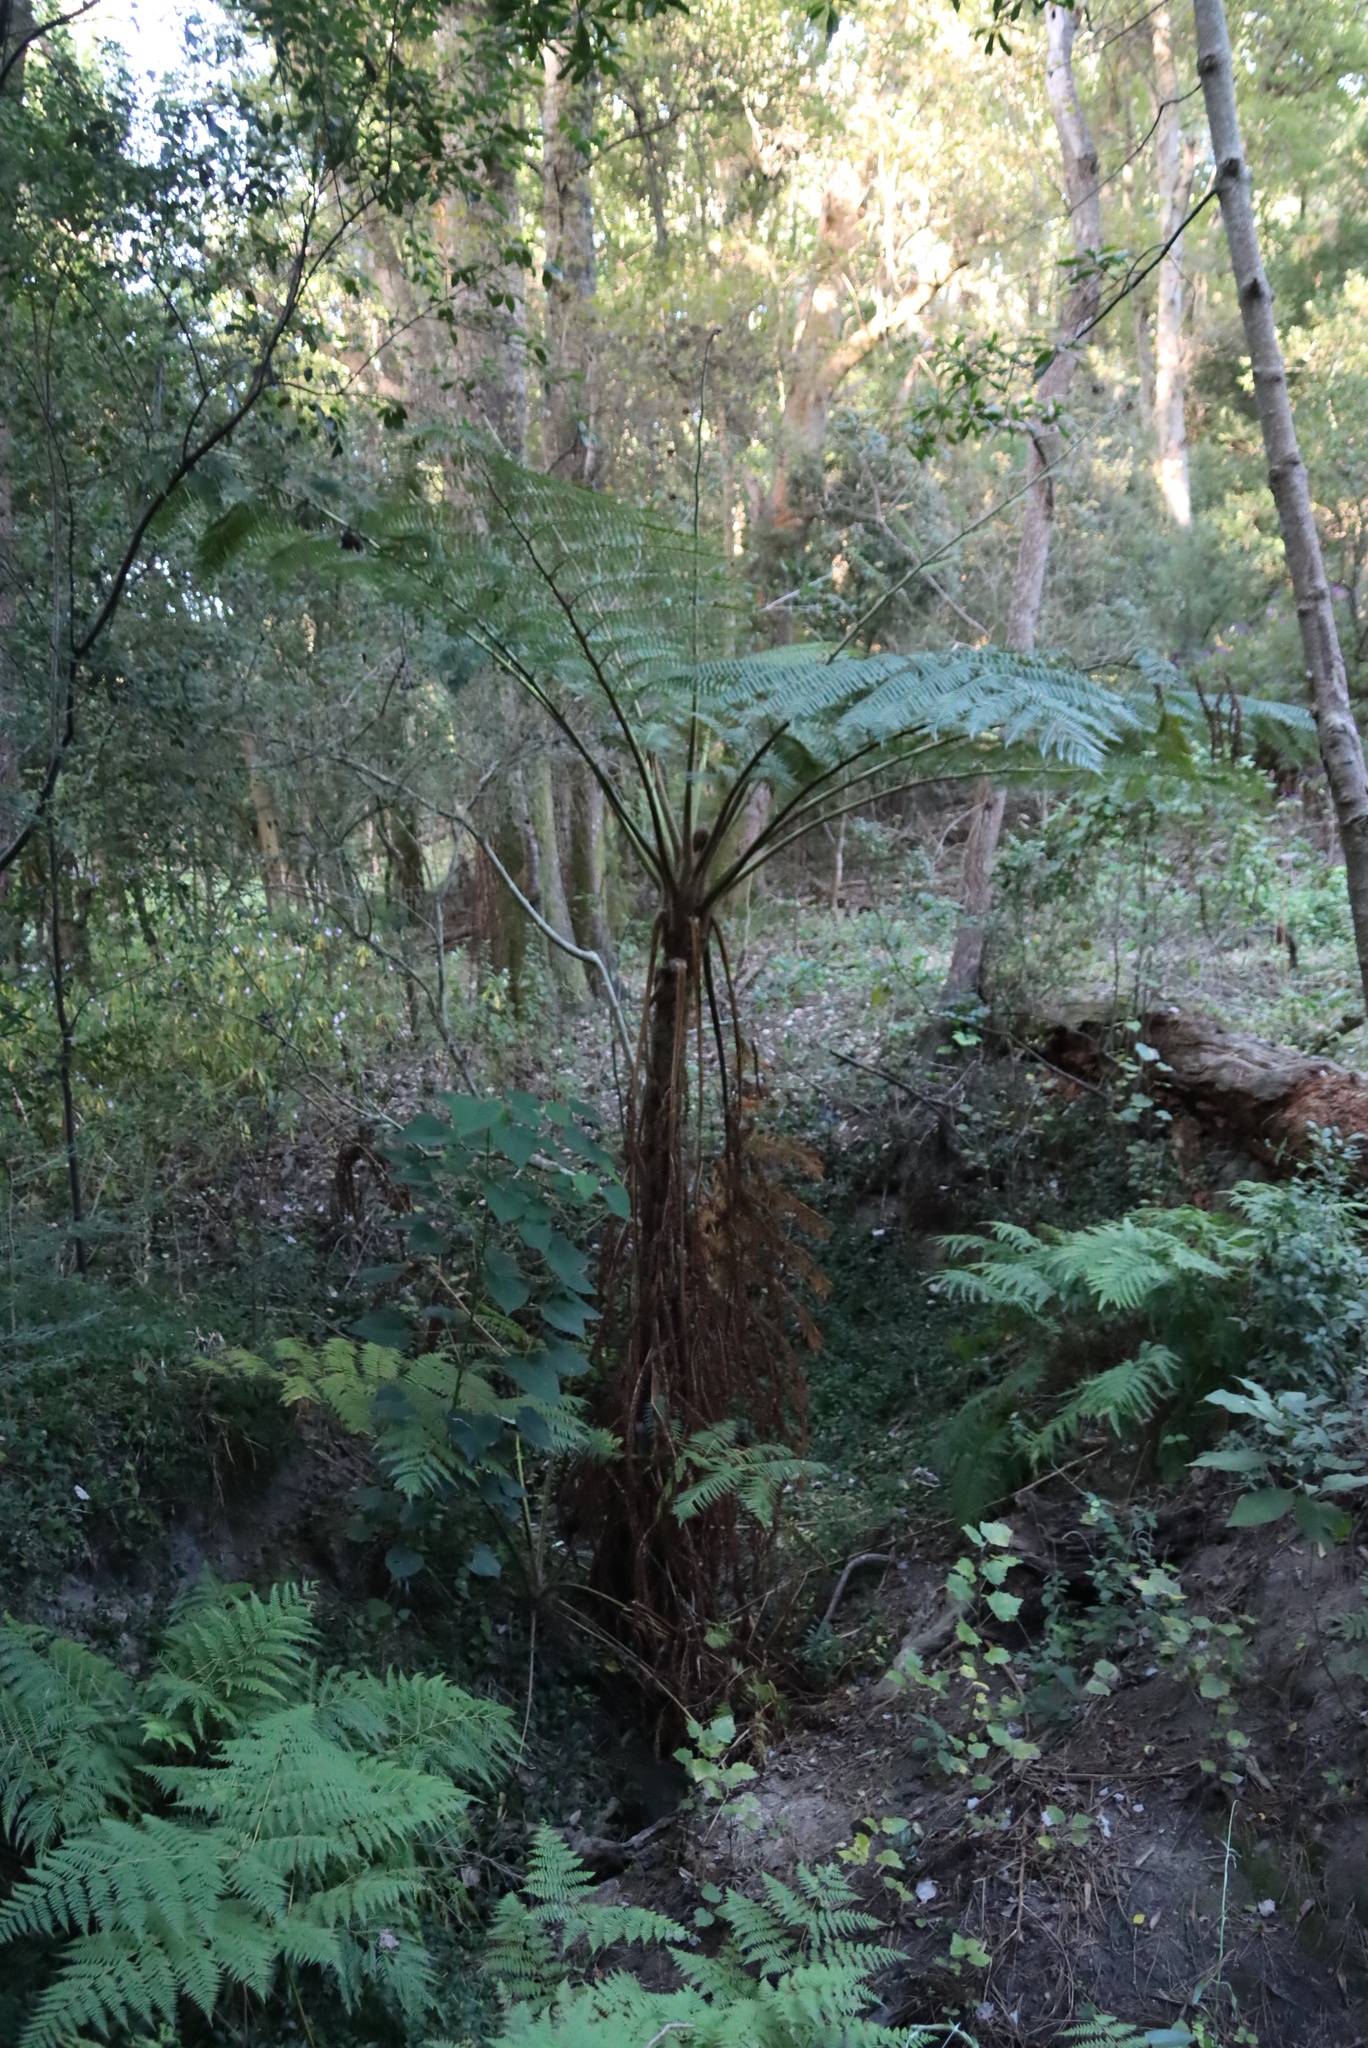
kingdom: Plantae
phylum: Tracheophyta
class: Polypodiopsida
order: Cyatheales
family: Cyatheaceae
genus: Sphaeropteris
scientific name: Sphaeropteris cooperi
